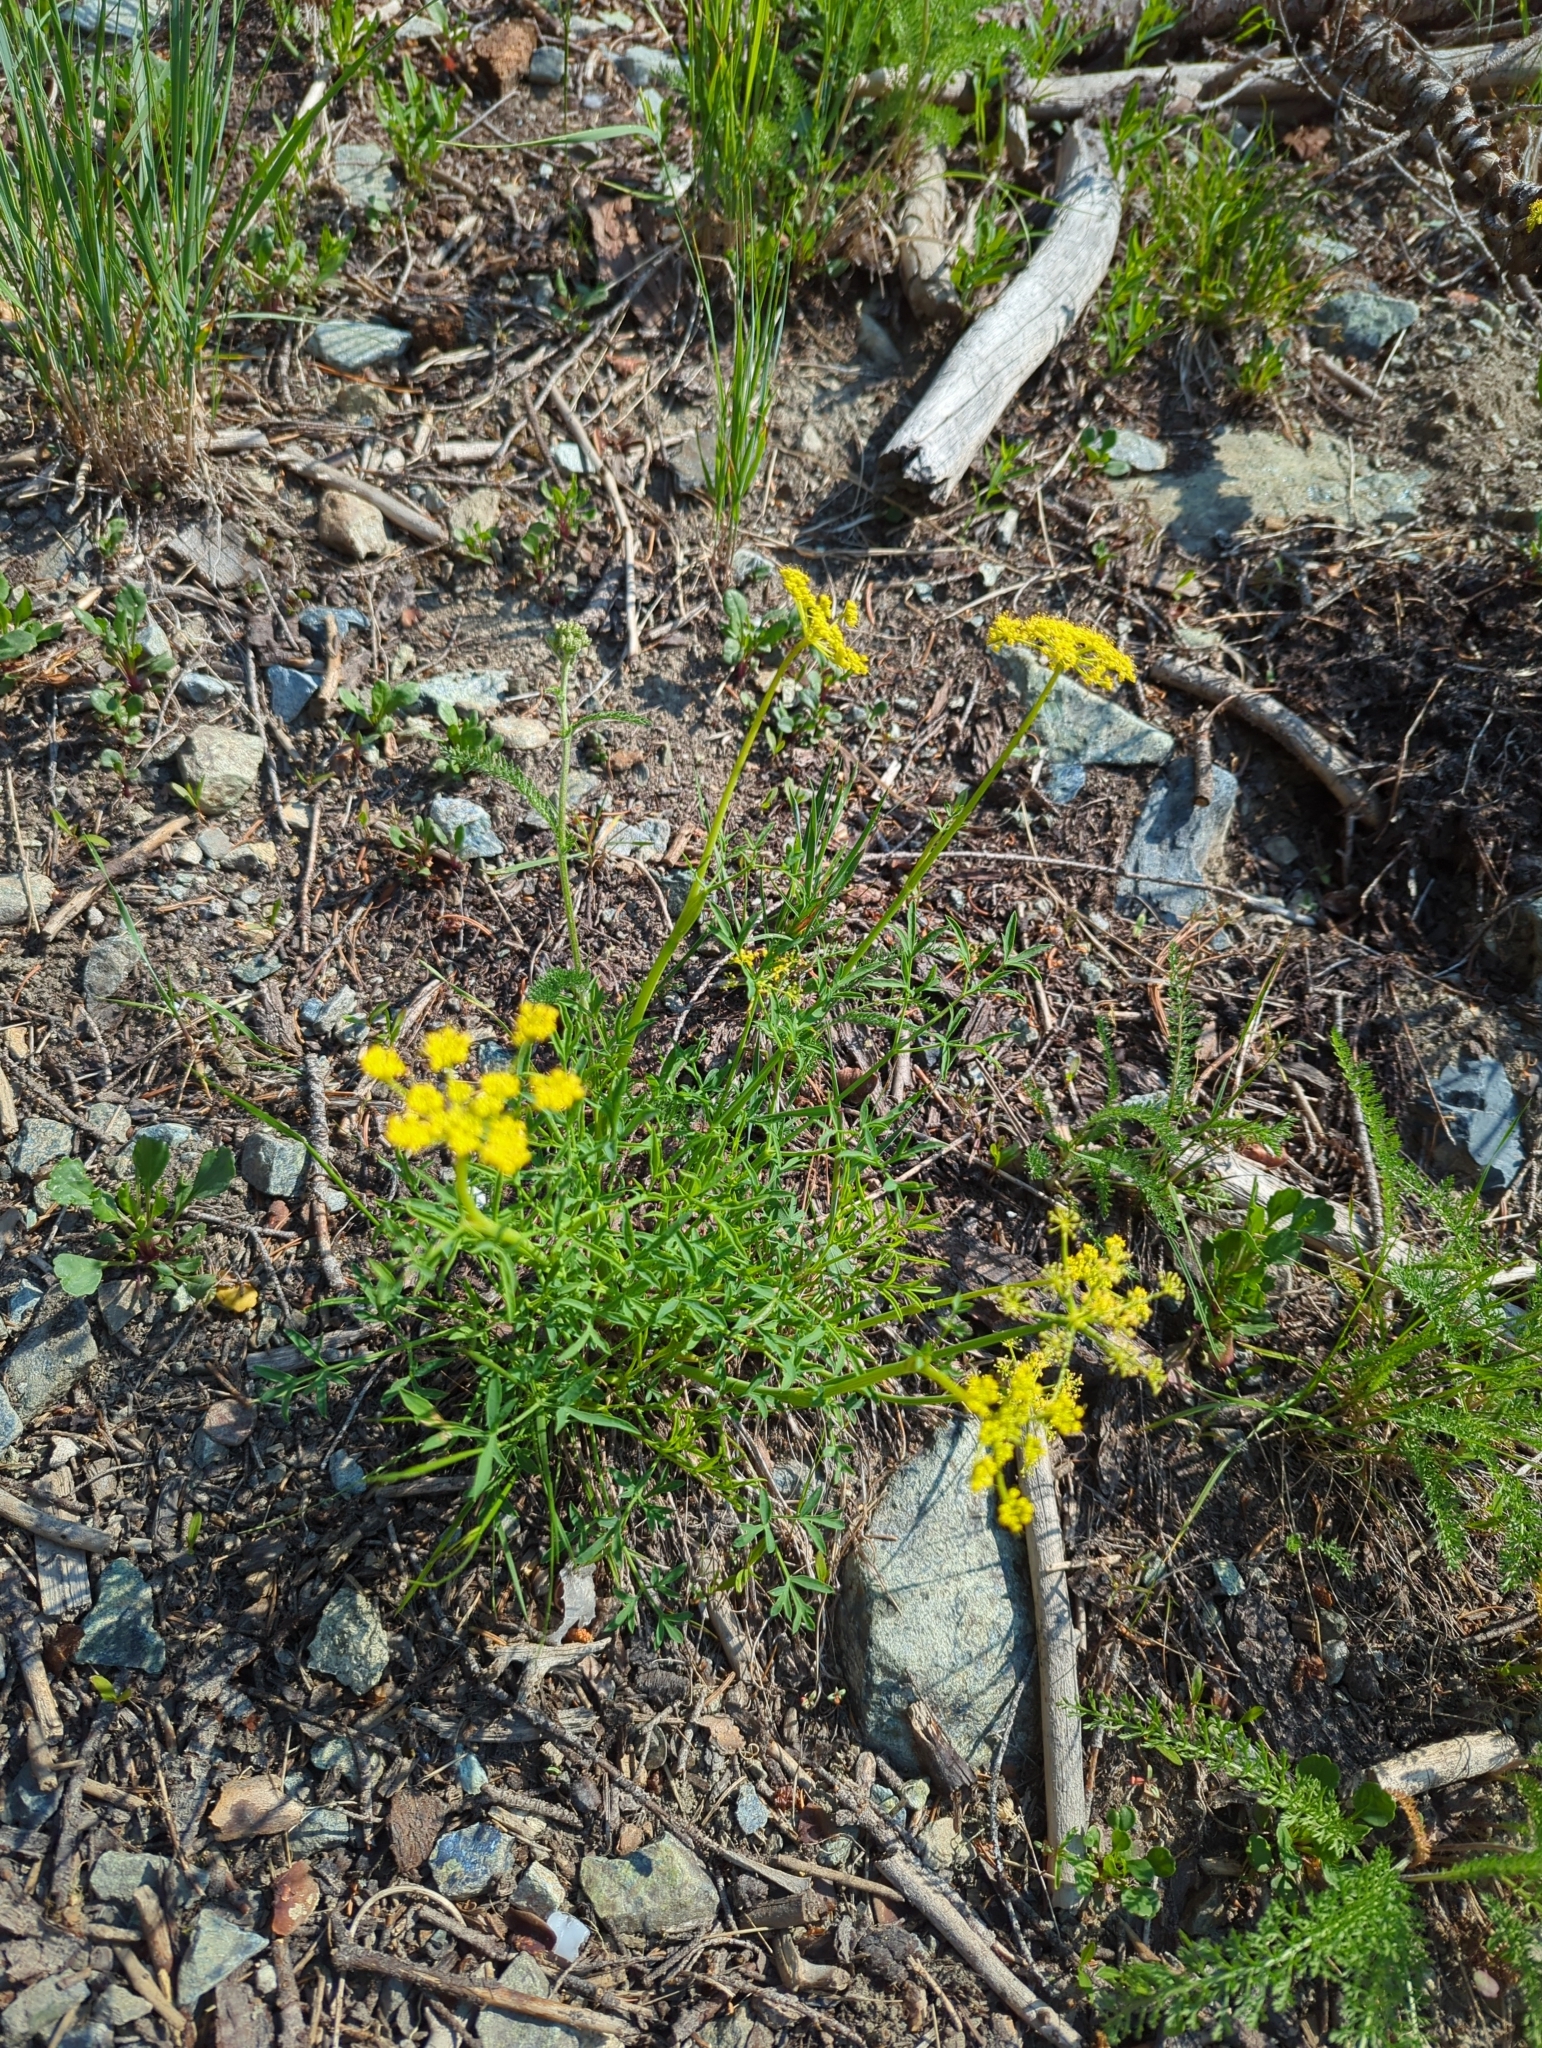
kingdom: Plantae
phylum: Tracheophyta
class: Magnoliopsida
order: Apiales
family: Apiaceae
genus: Lomatium
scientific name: Lomatium brandegeei
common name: Brandegee's desert-parsley
